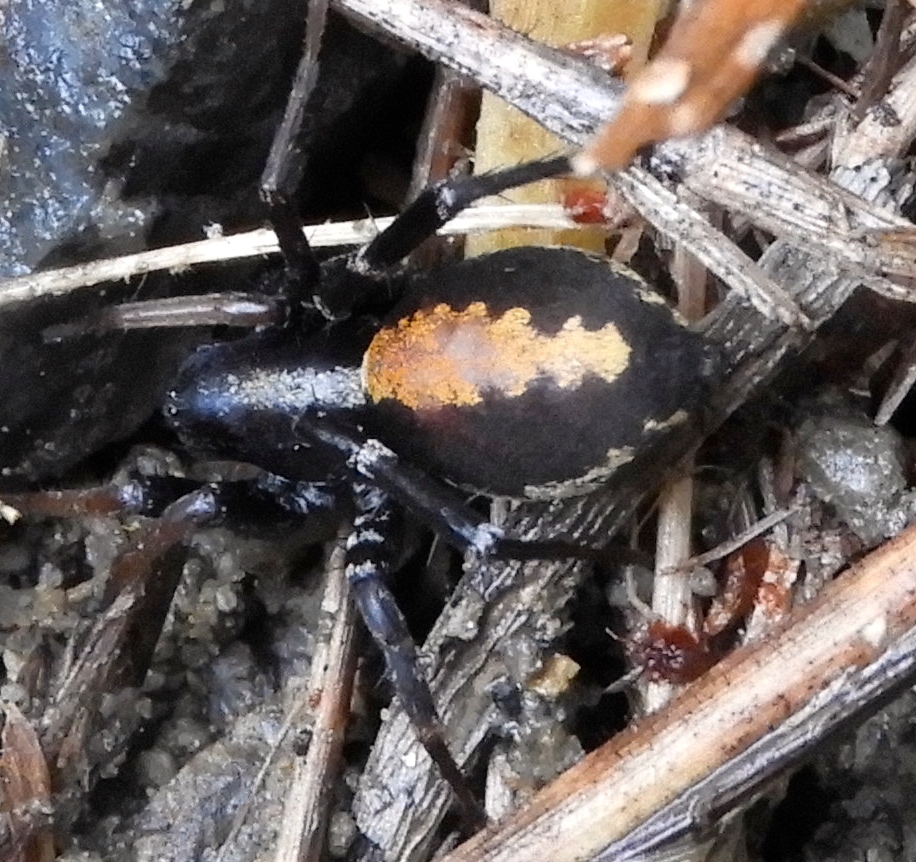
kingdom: Animalia
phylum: Arthropoda
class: Arachnida
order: Araneae
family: Corinnidae
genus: Castianeira
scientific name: Castianeira
